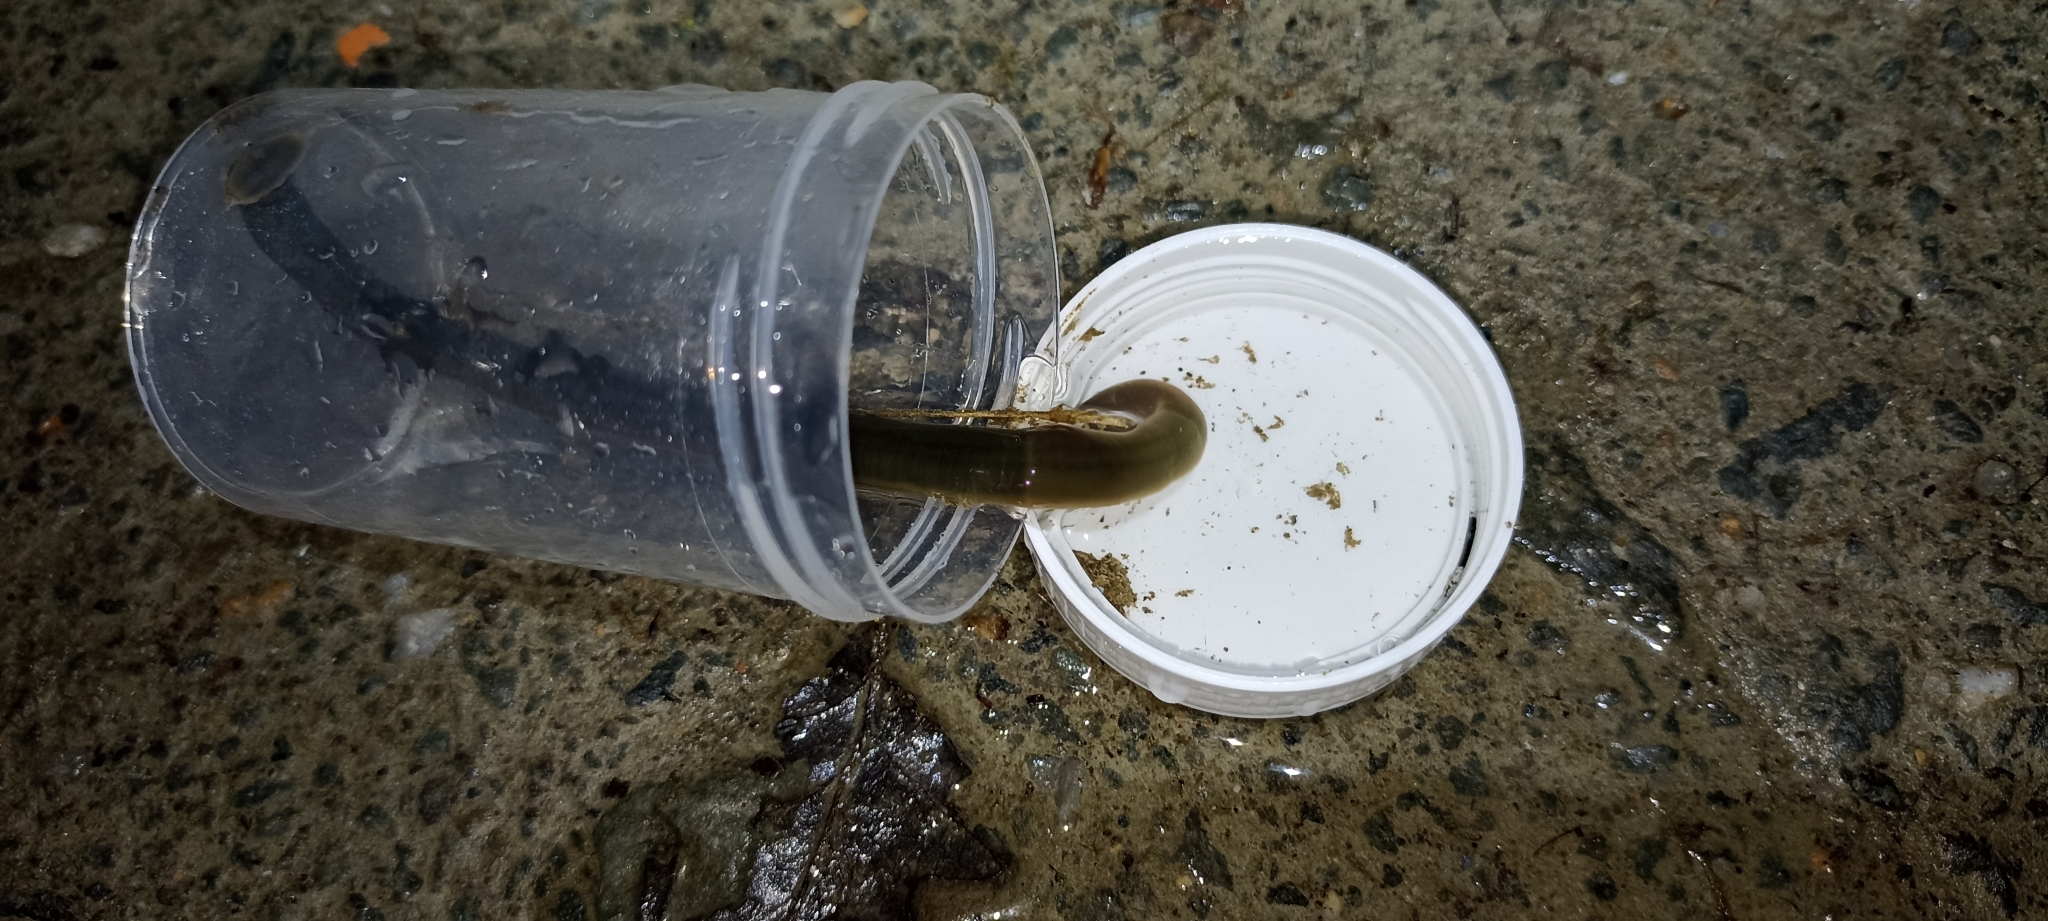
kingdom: Animalia
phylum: Annelida
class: Clitellata
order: Arhynchobdellida
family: Erpobdellidae
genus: Trocheta
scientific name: Trocheta subviridis
